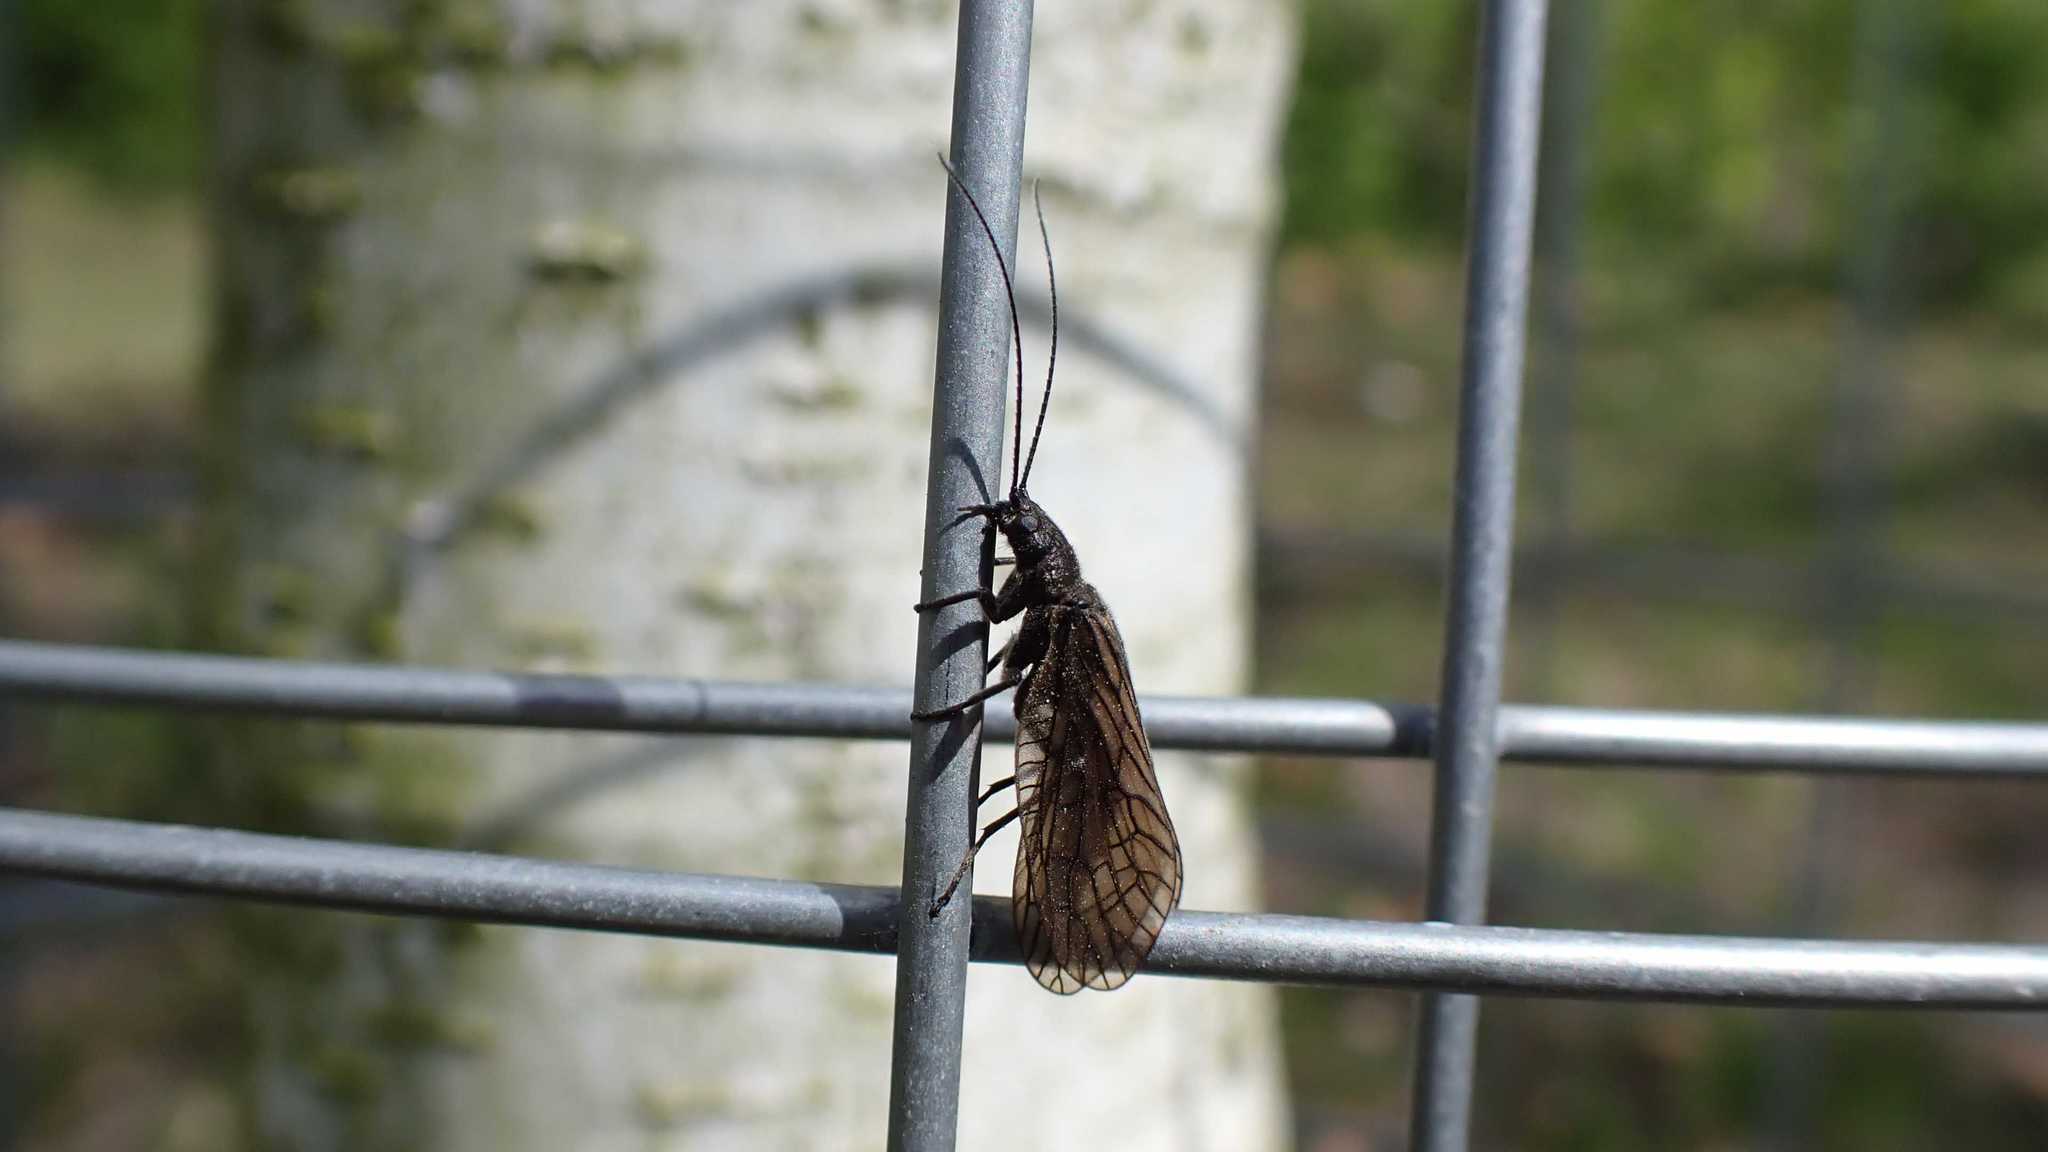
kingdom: Animalia
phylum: Arthropoda
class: Insecta
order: Megaloptera
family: Sialidae
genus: Sialis
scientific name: Sialis
